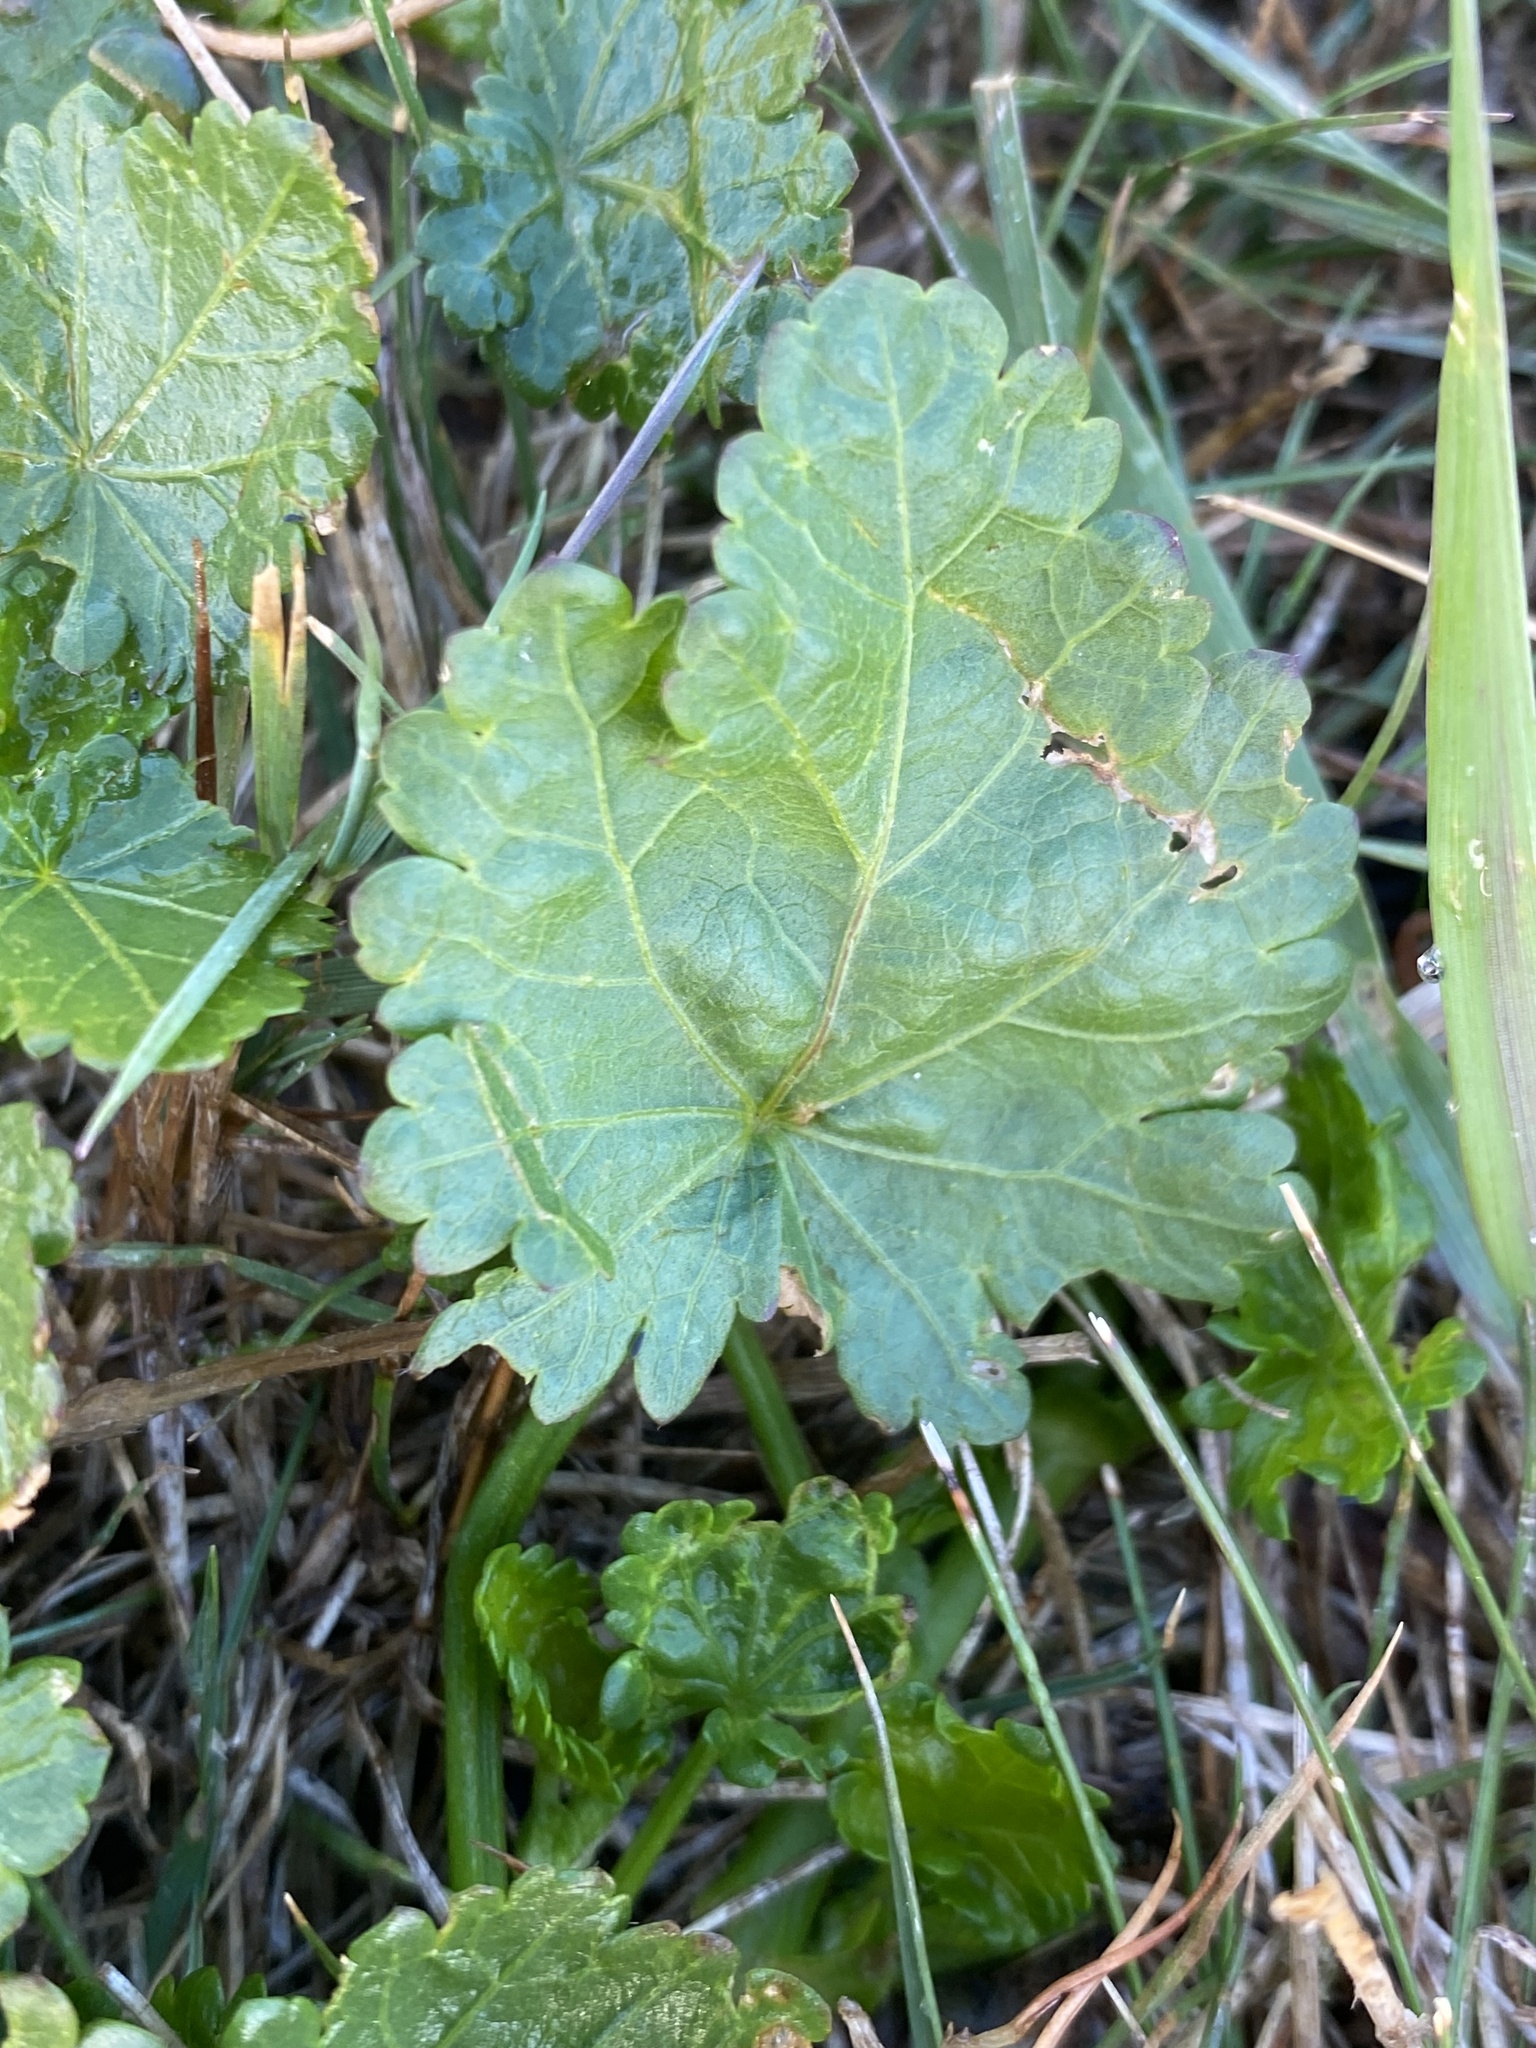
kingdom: Plantae
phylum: Tracheophyta
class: Magnoliopsida
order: Malvales
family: Malvaceae
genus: Modiola
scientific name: Modiola caroliniana
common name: Carolina bristlemallow
